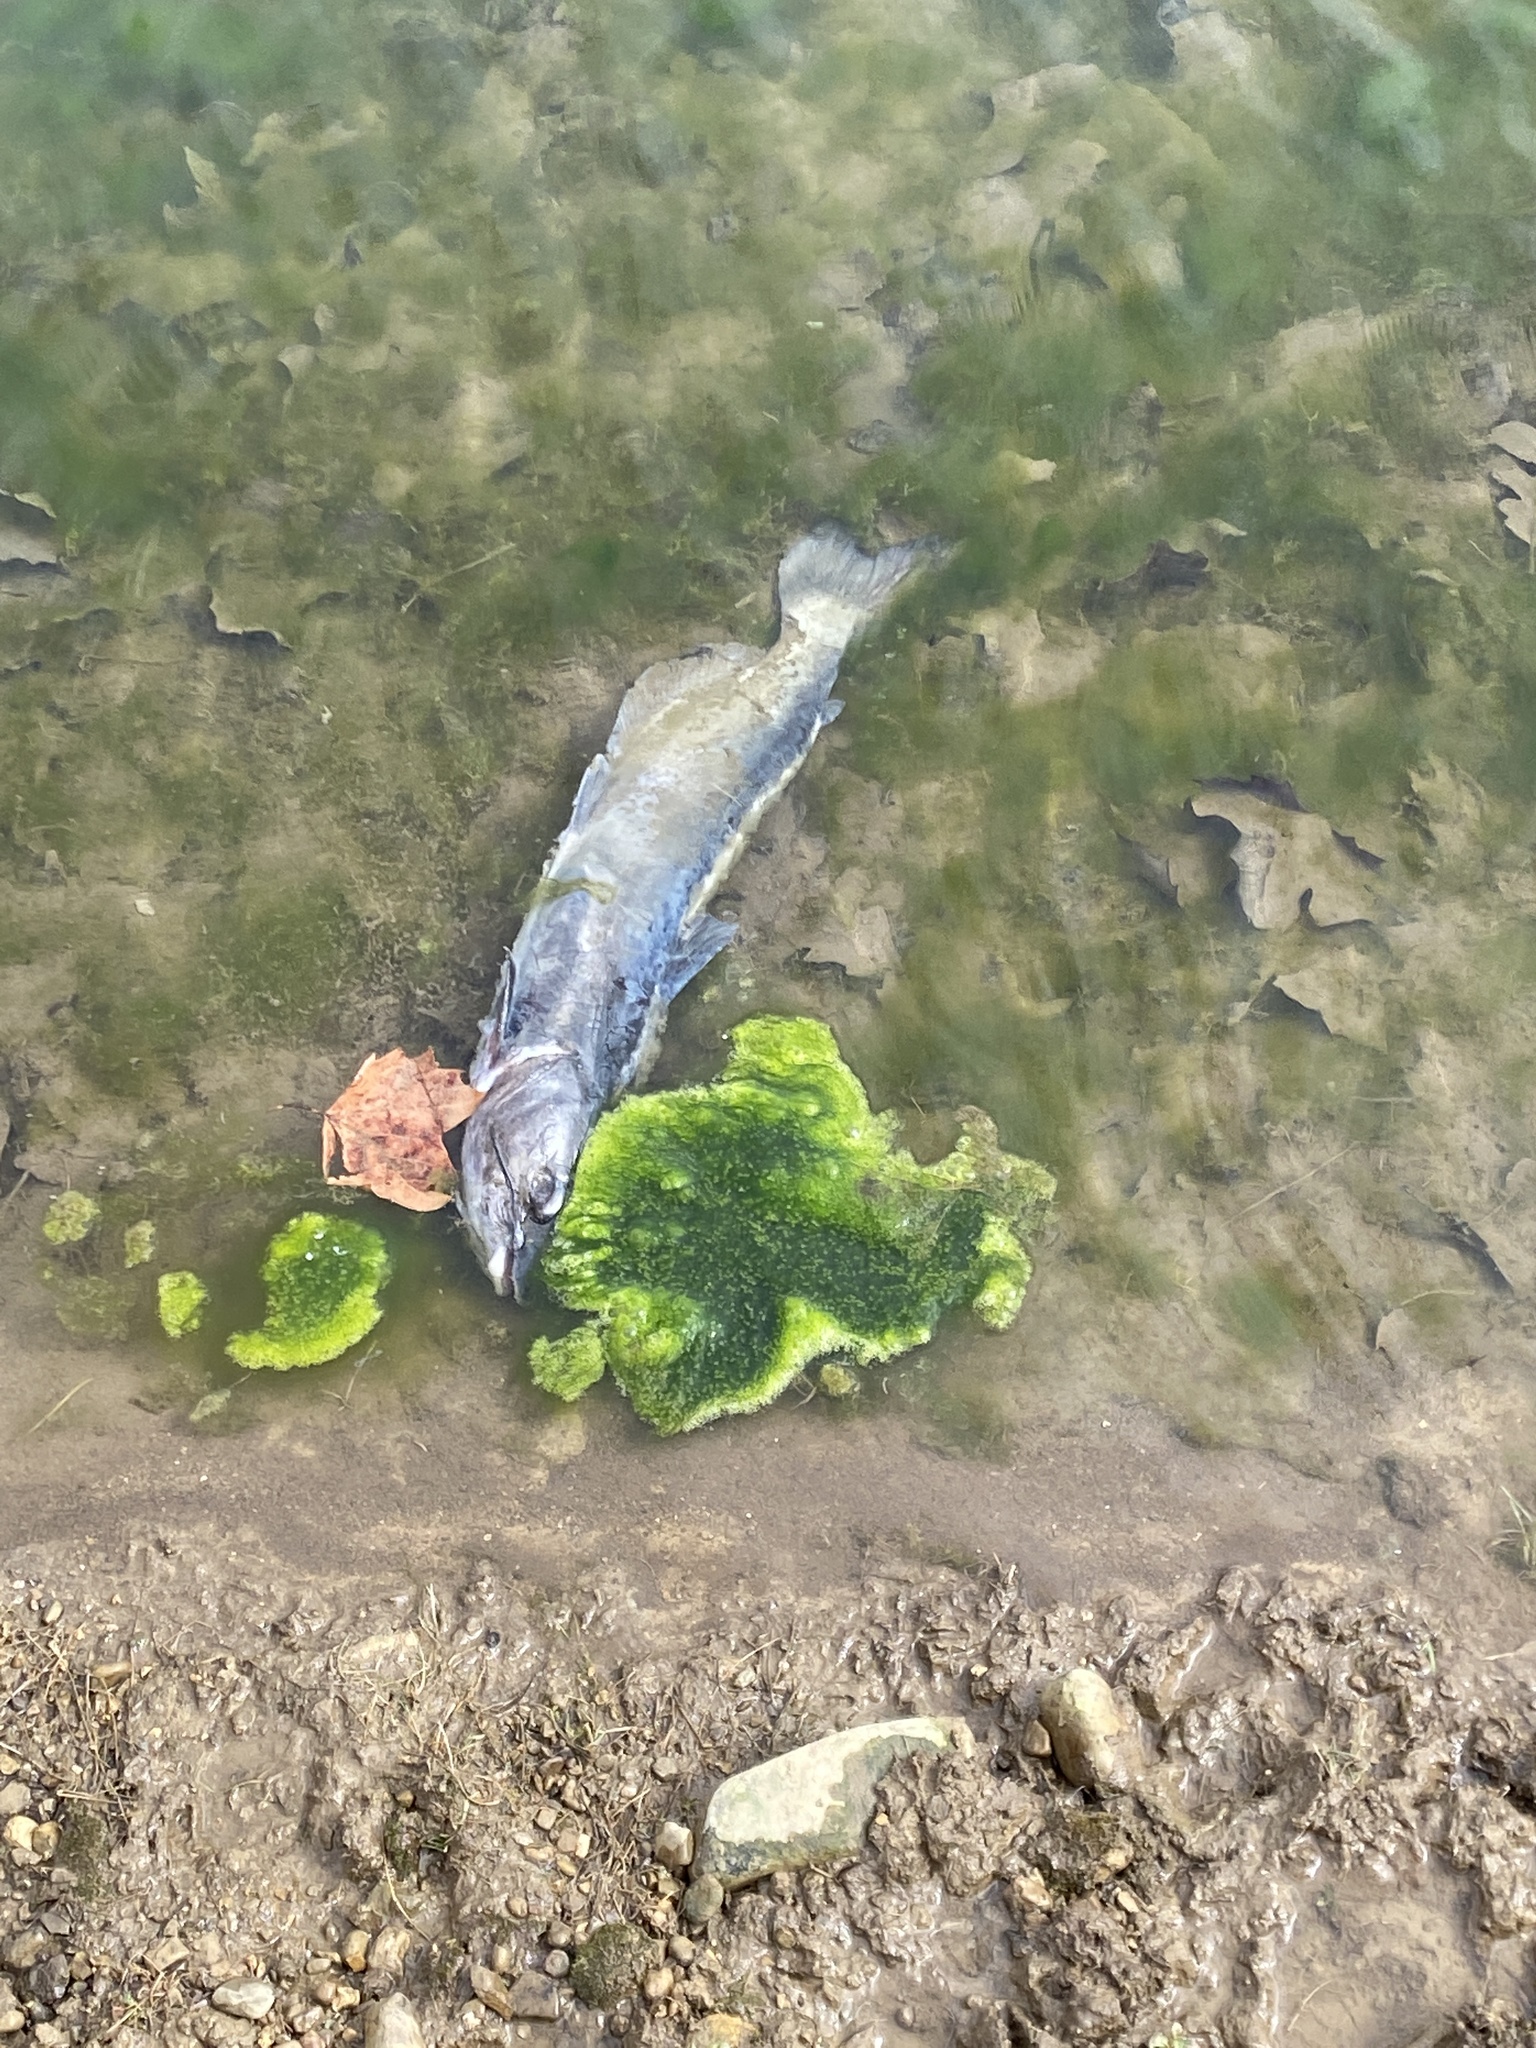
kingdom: Animalia
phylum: Chordata
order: Siluriformes
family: Ictaluridae
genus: Ictalurus
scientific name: Ictalurus punctatus
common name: Channel catfish
